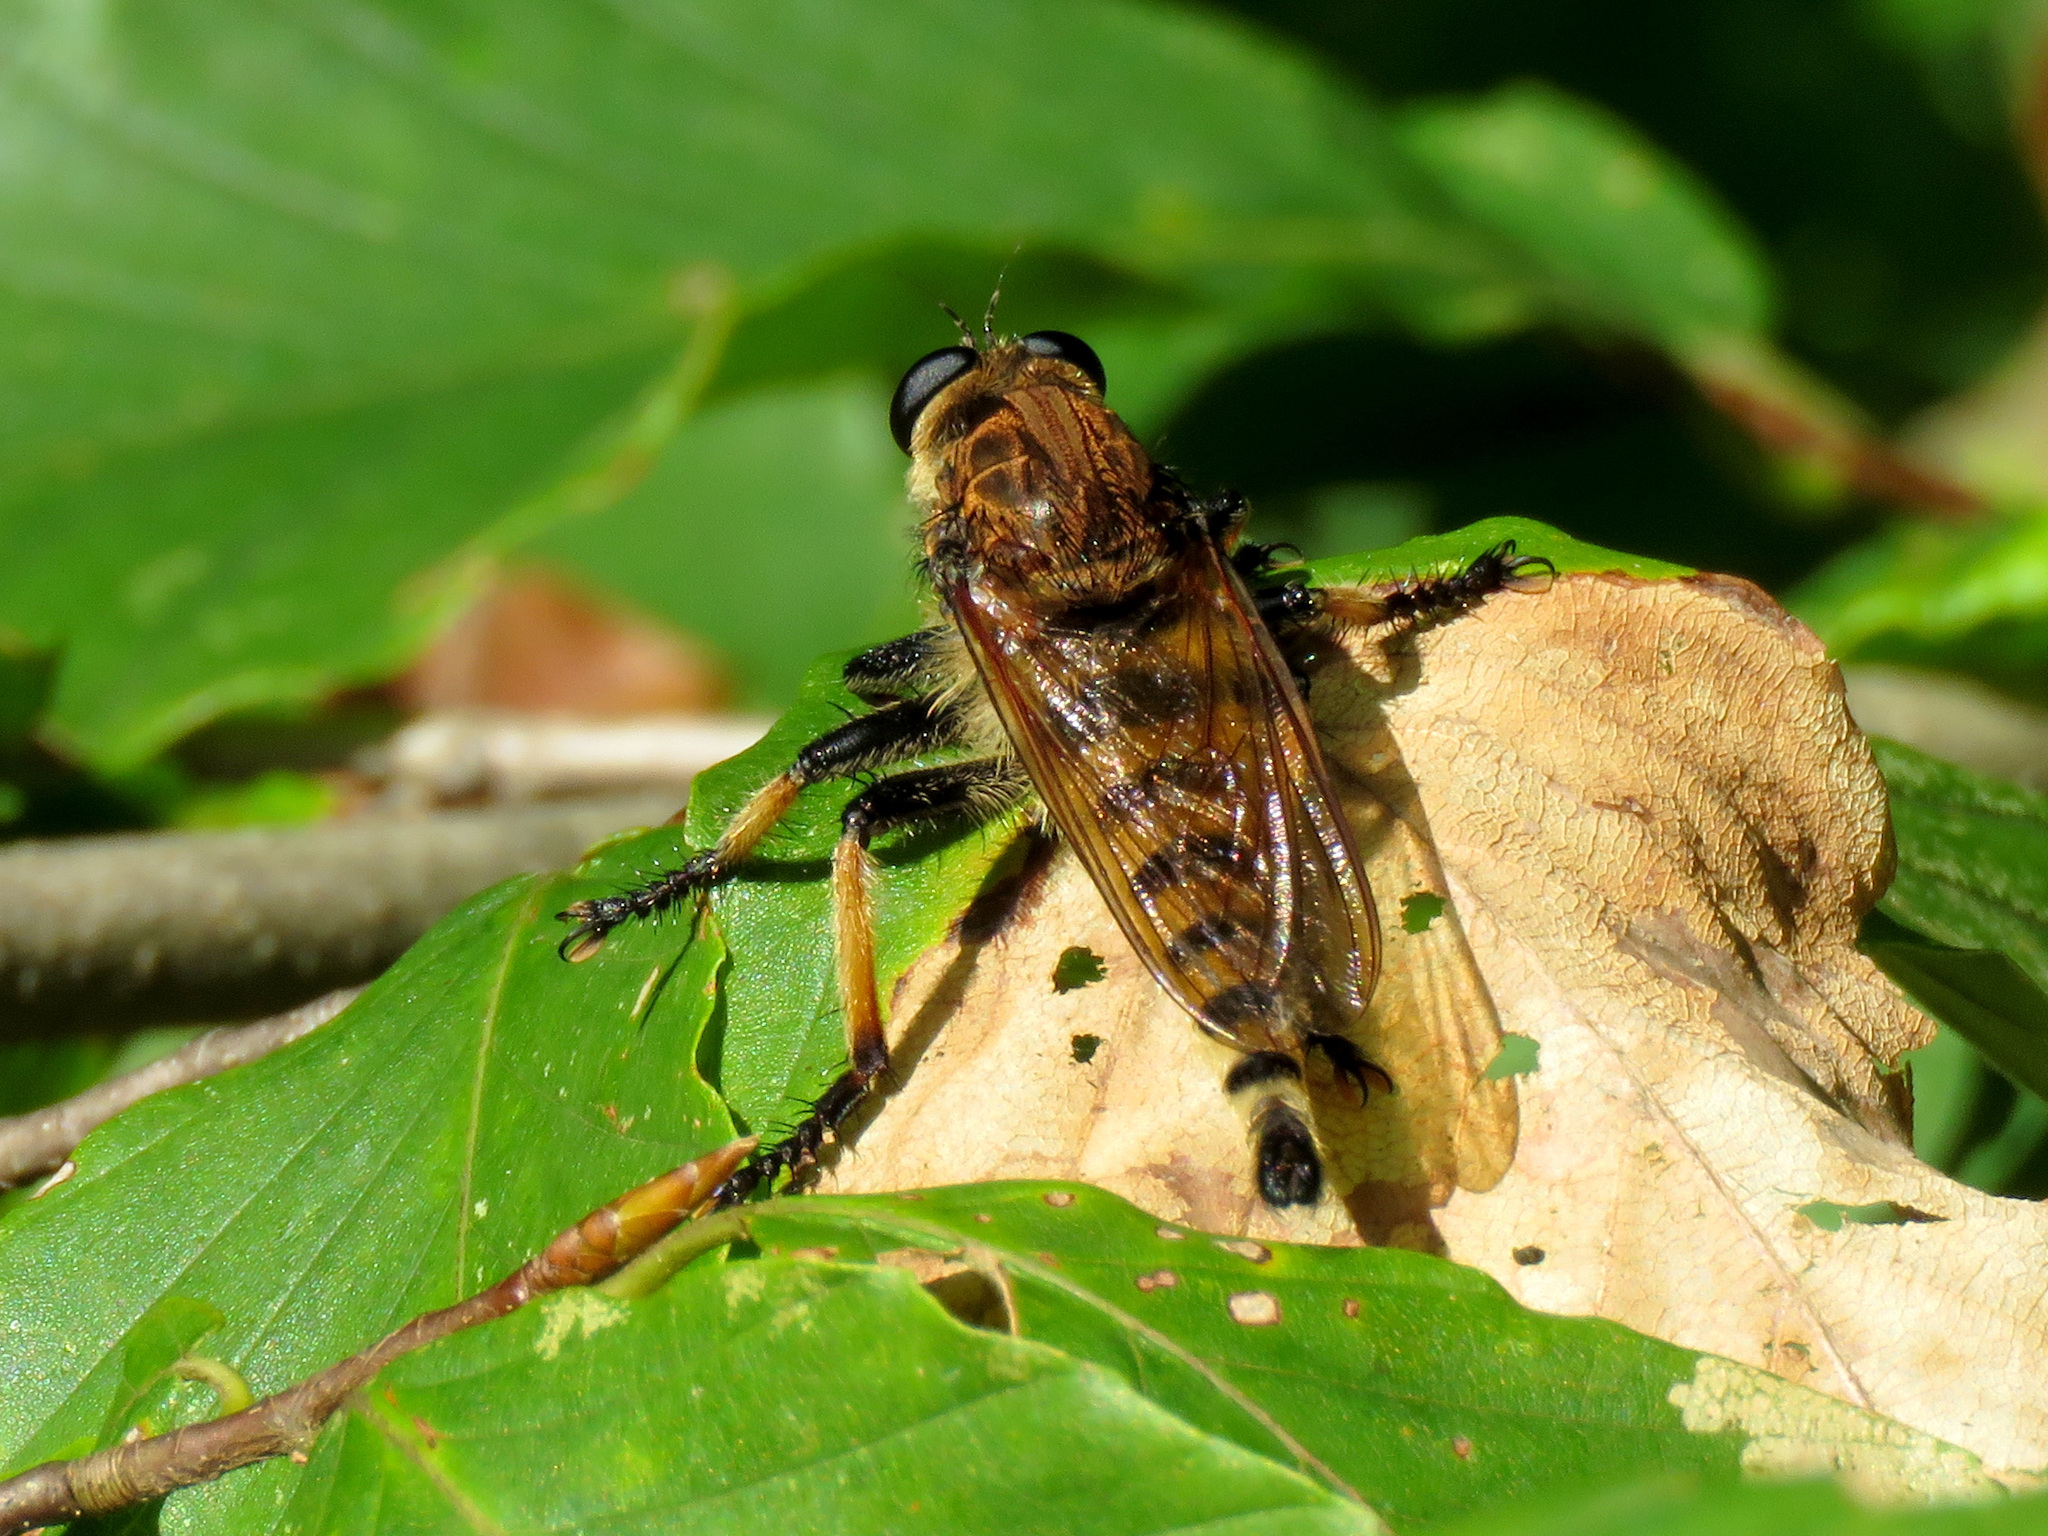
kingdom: Animalia
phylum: Arthropoda
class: Insecta
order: Diptera
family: Asilidae
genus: Promachus
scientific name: Promachus rufipes
